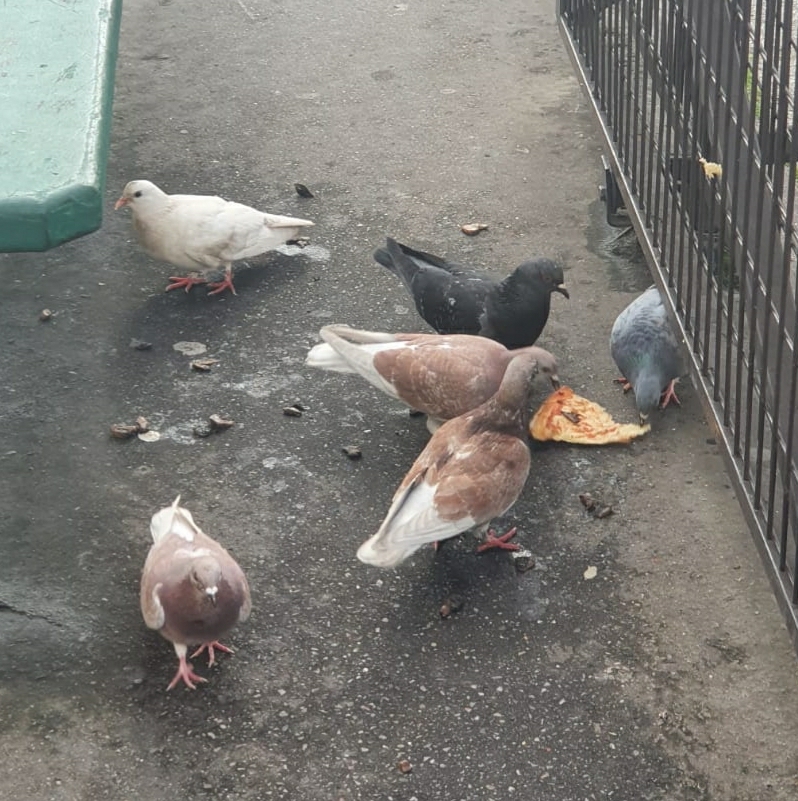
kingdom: Animalia
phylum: Chordata
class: Aves
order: Columbiformes
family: Columbidae
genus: Columba
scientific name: Columba livia
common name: Rock pigeon
